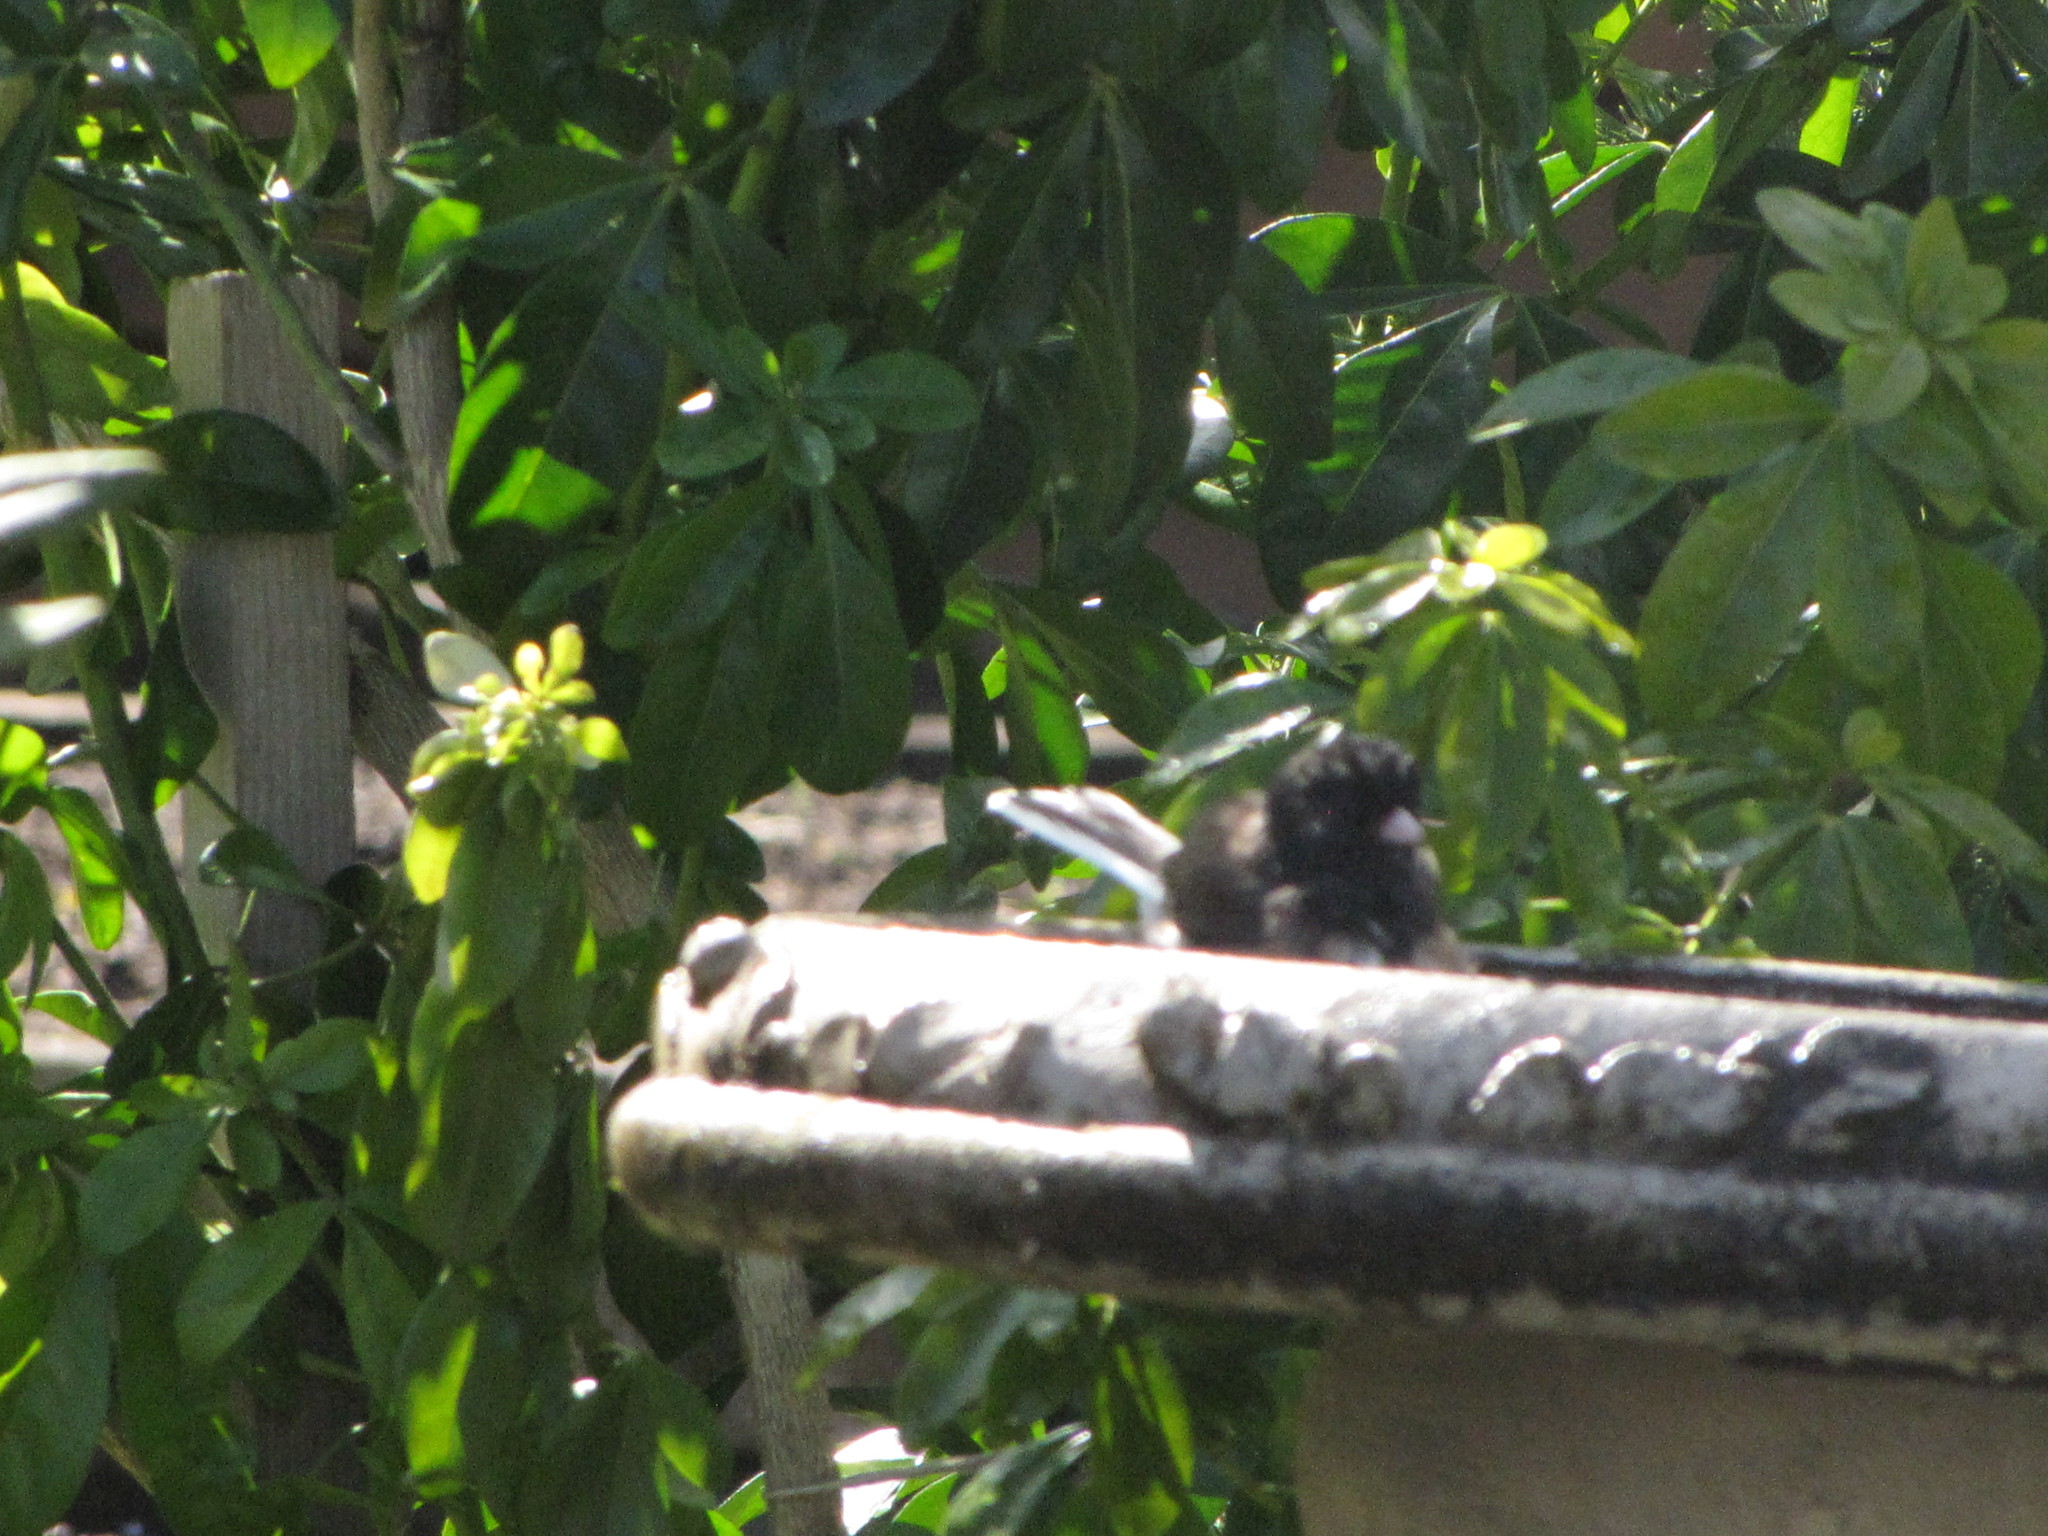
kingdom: Animalia
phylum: Chordata
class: Aves
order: Passeriformes
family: Passerellidae
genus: Junco
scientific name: Junco hyemalis
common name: Dark-eyed junco
